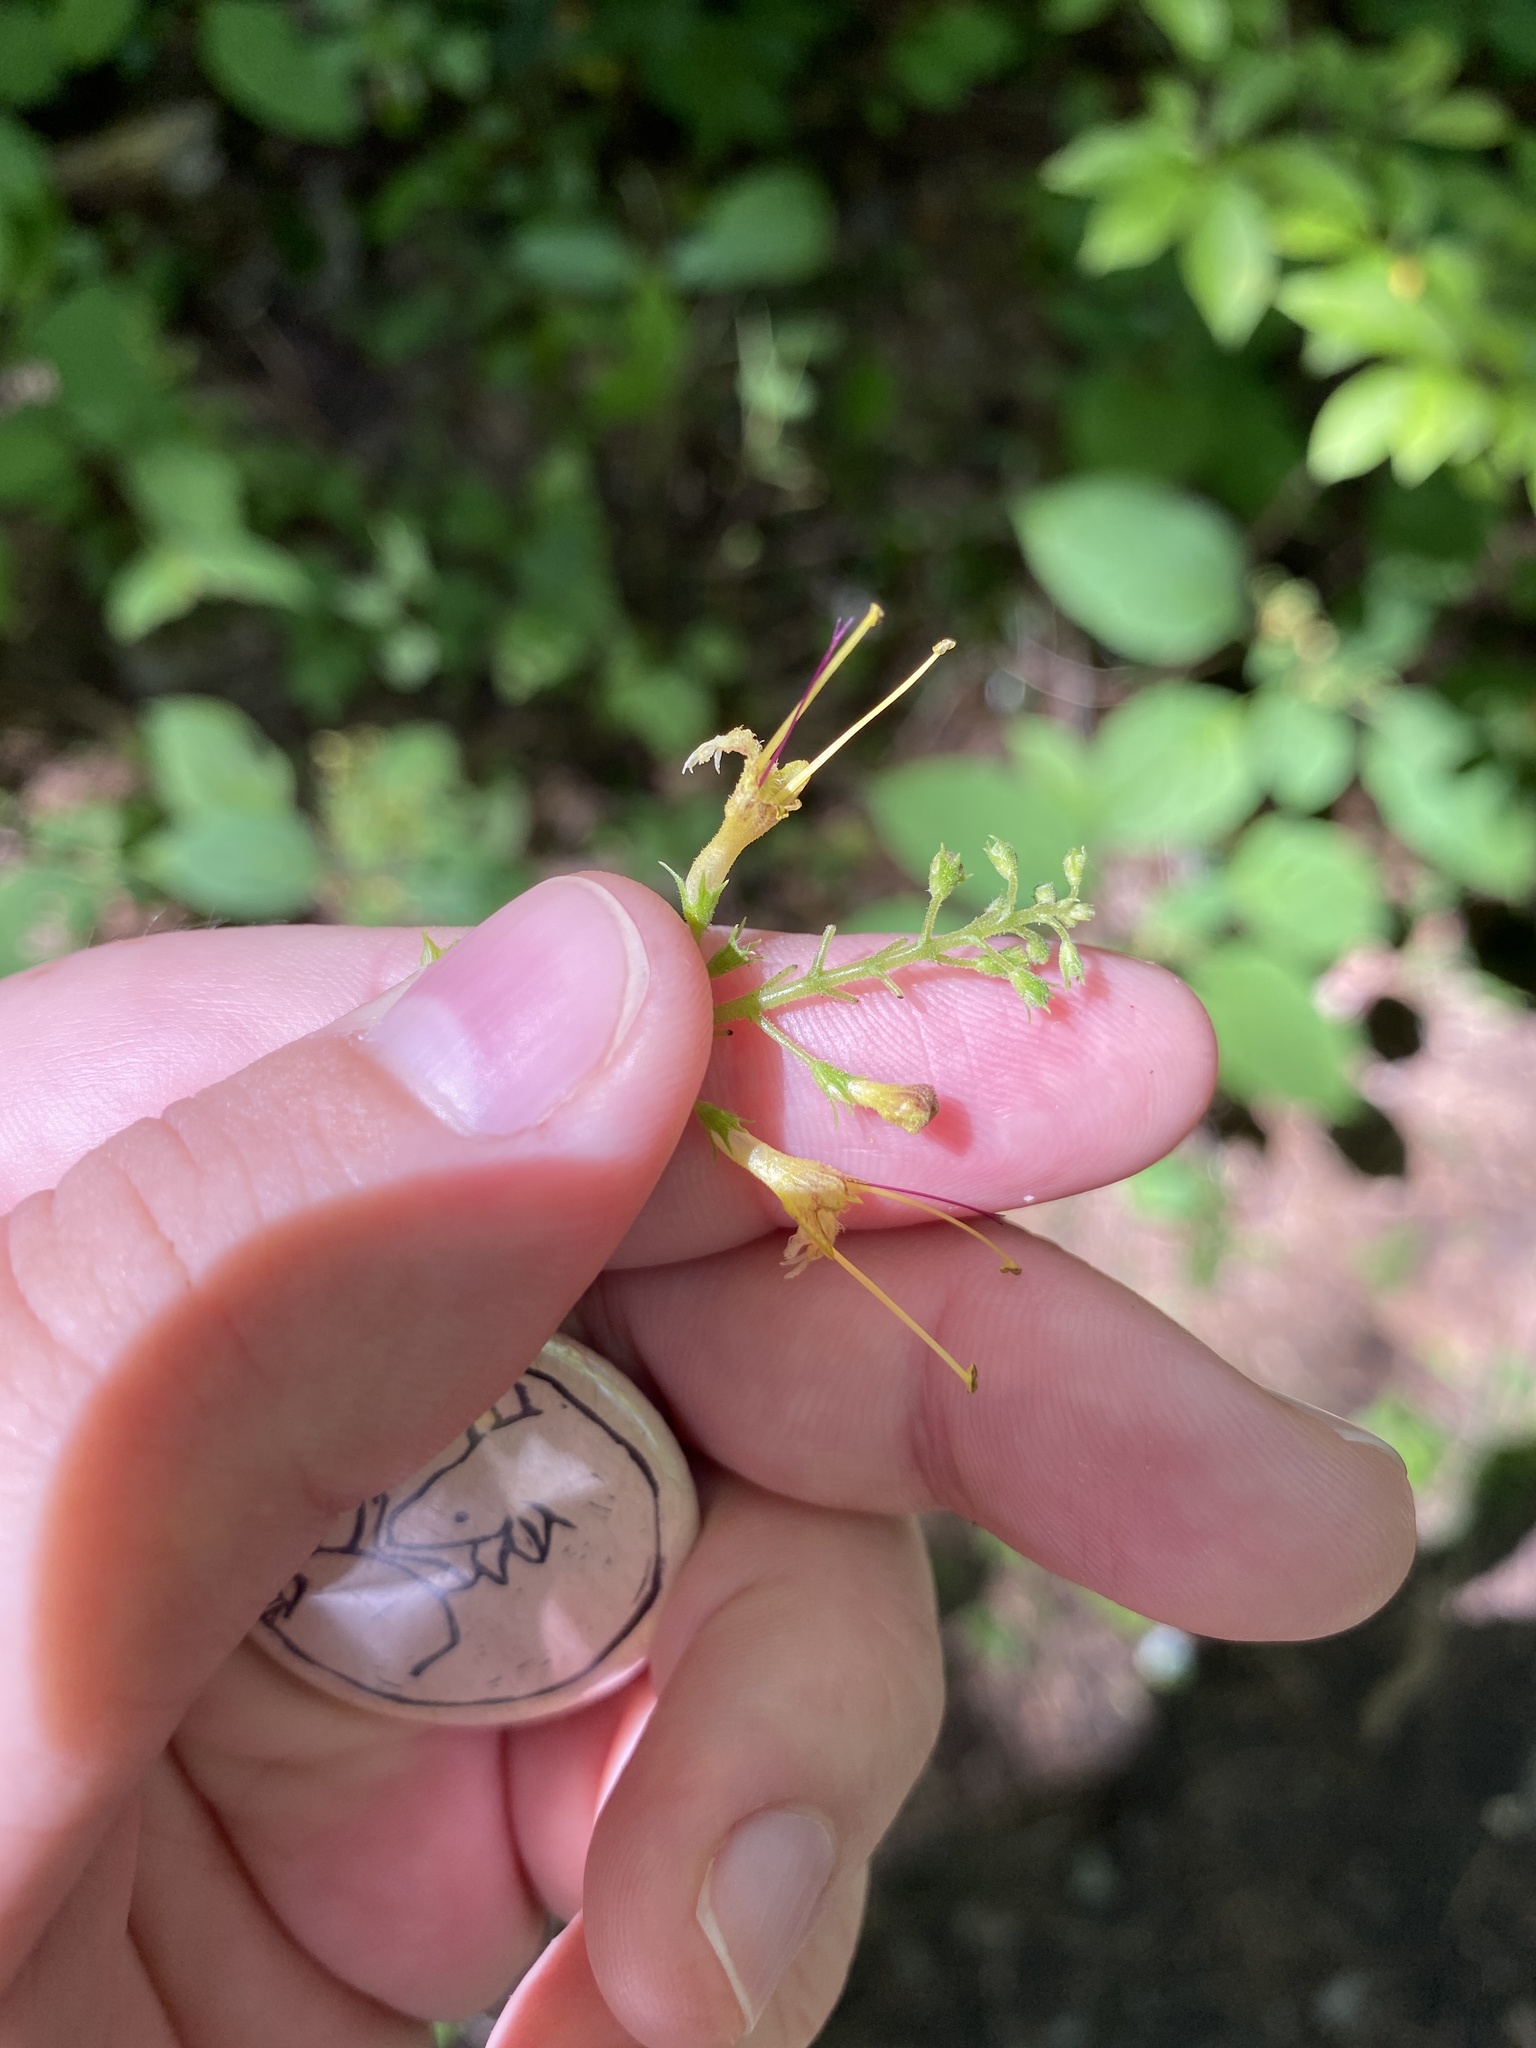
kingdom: Plantae
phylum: Tracheophyta
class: Magnoliopsida
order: Lamiales
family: Lamiaceae
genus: Collinsonia
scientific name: Collinsonia canadensis
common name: Northern horsebalm
